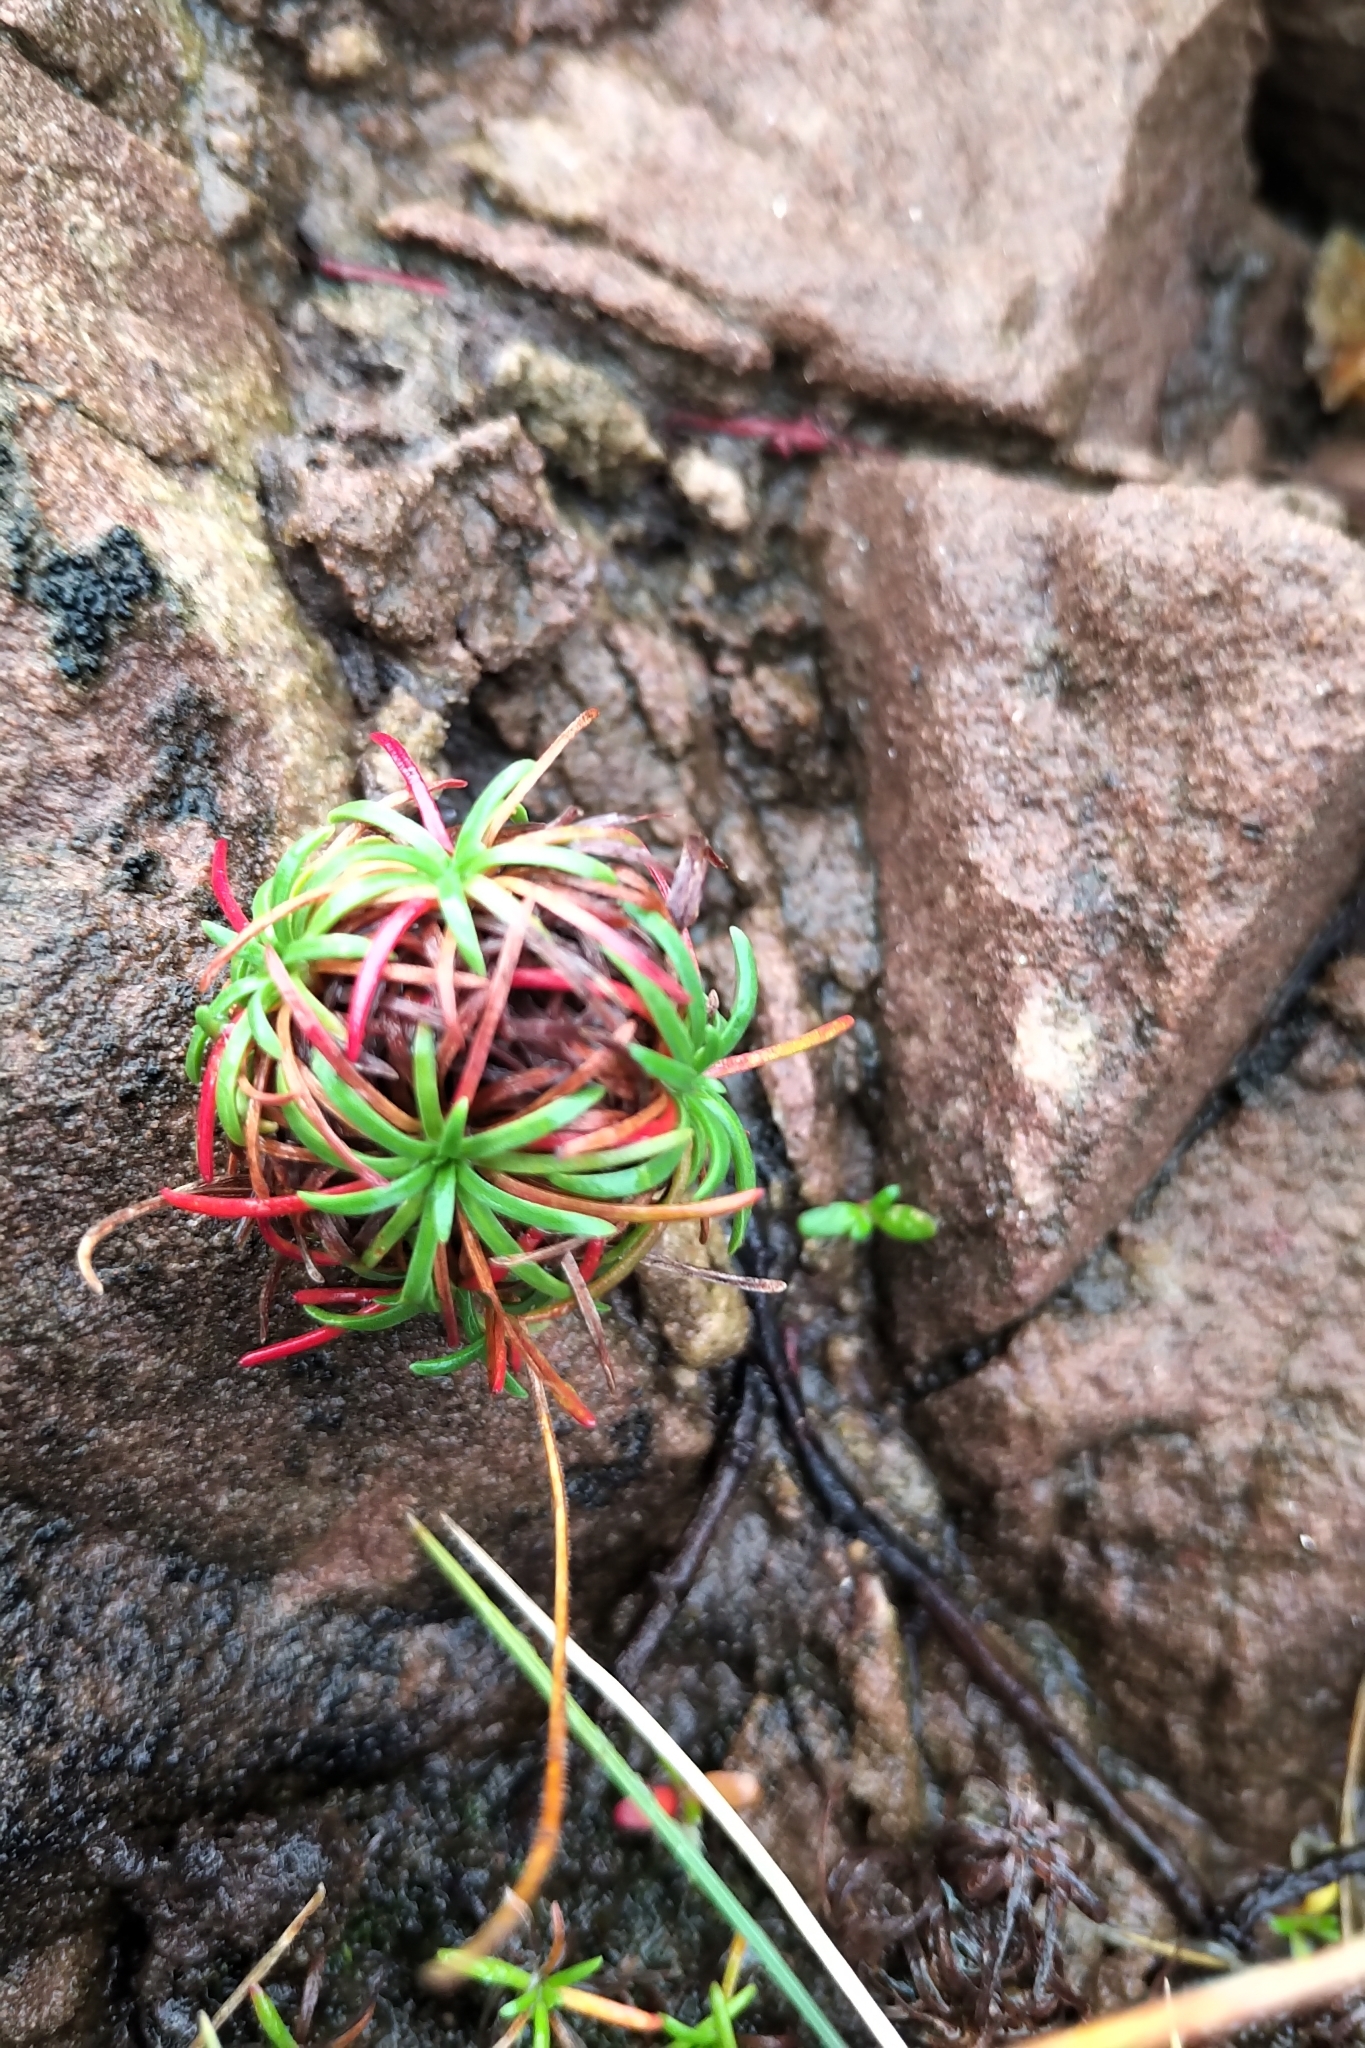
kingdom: Plantae
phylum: Tracheophyta
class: Magnoliopsida
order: Caryophyllales
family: Plumbaginaceae
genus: Armeria
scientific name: Armeria maritima
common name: Thrift
